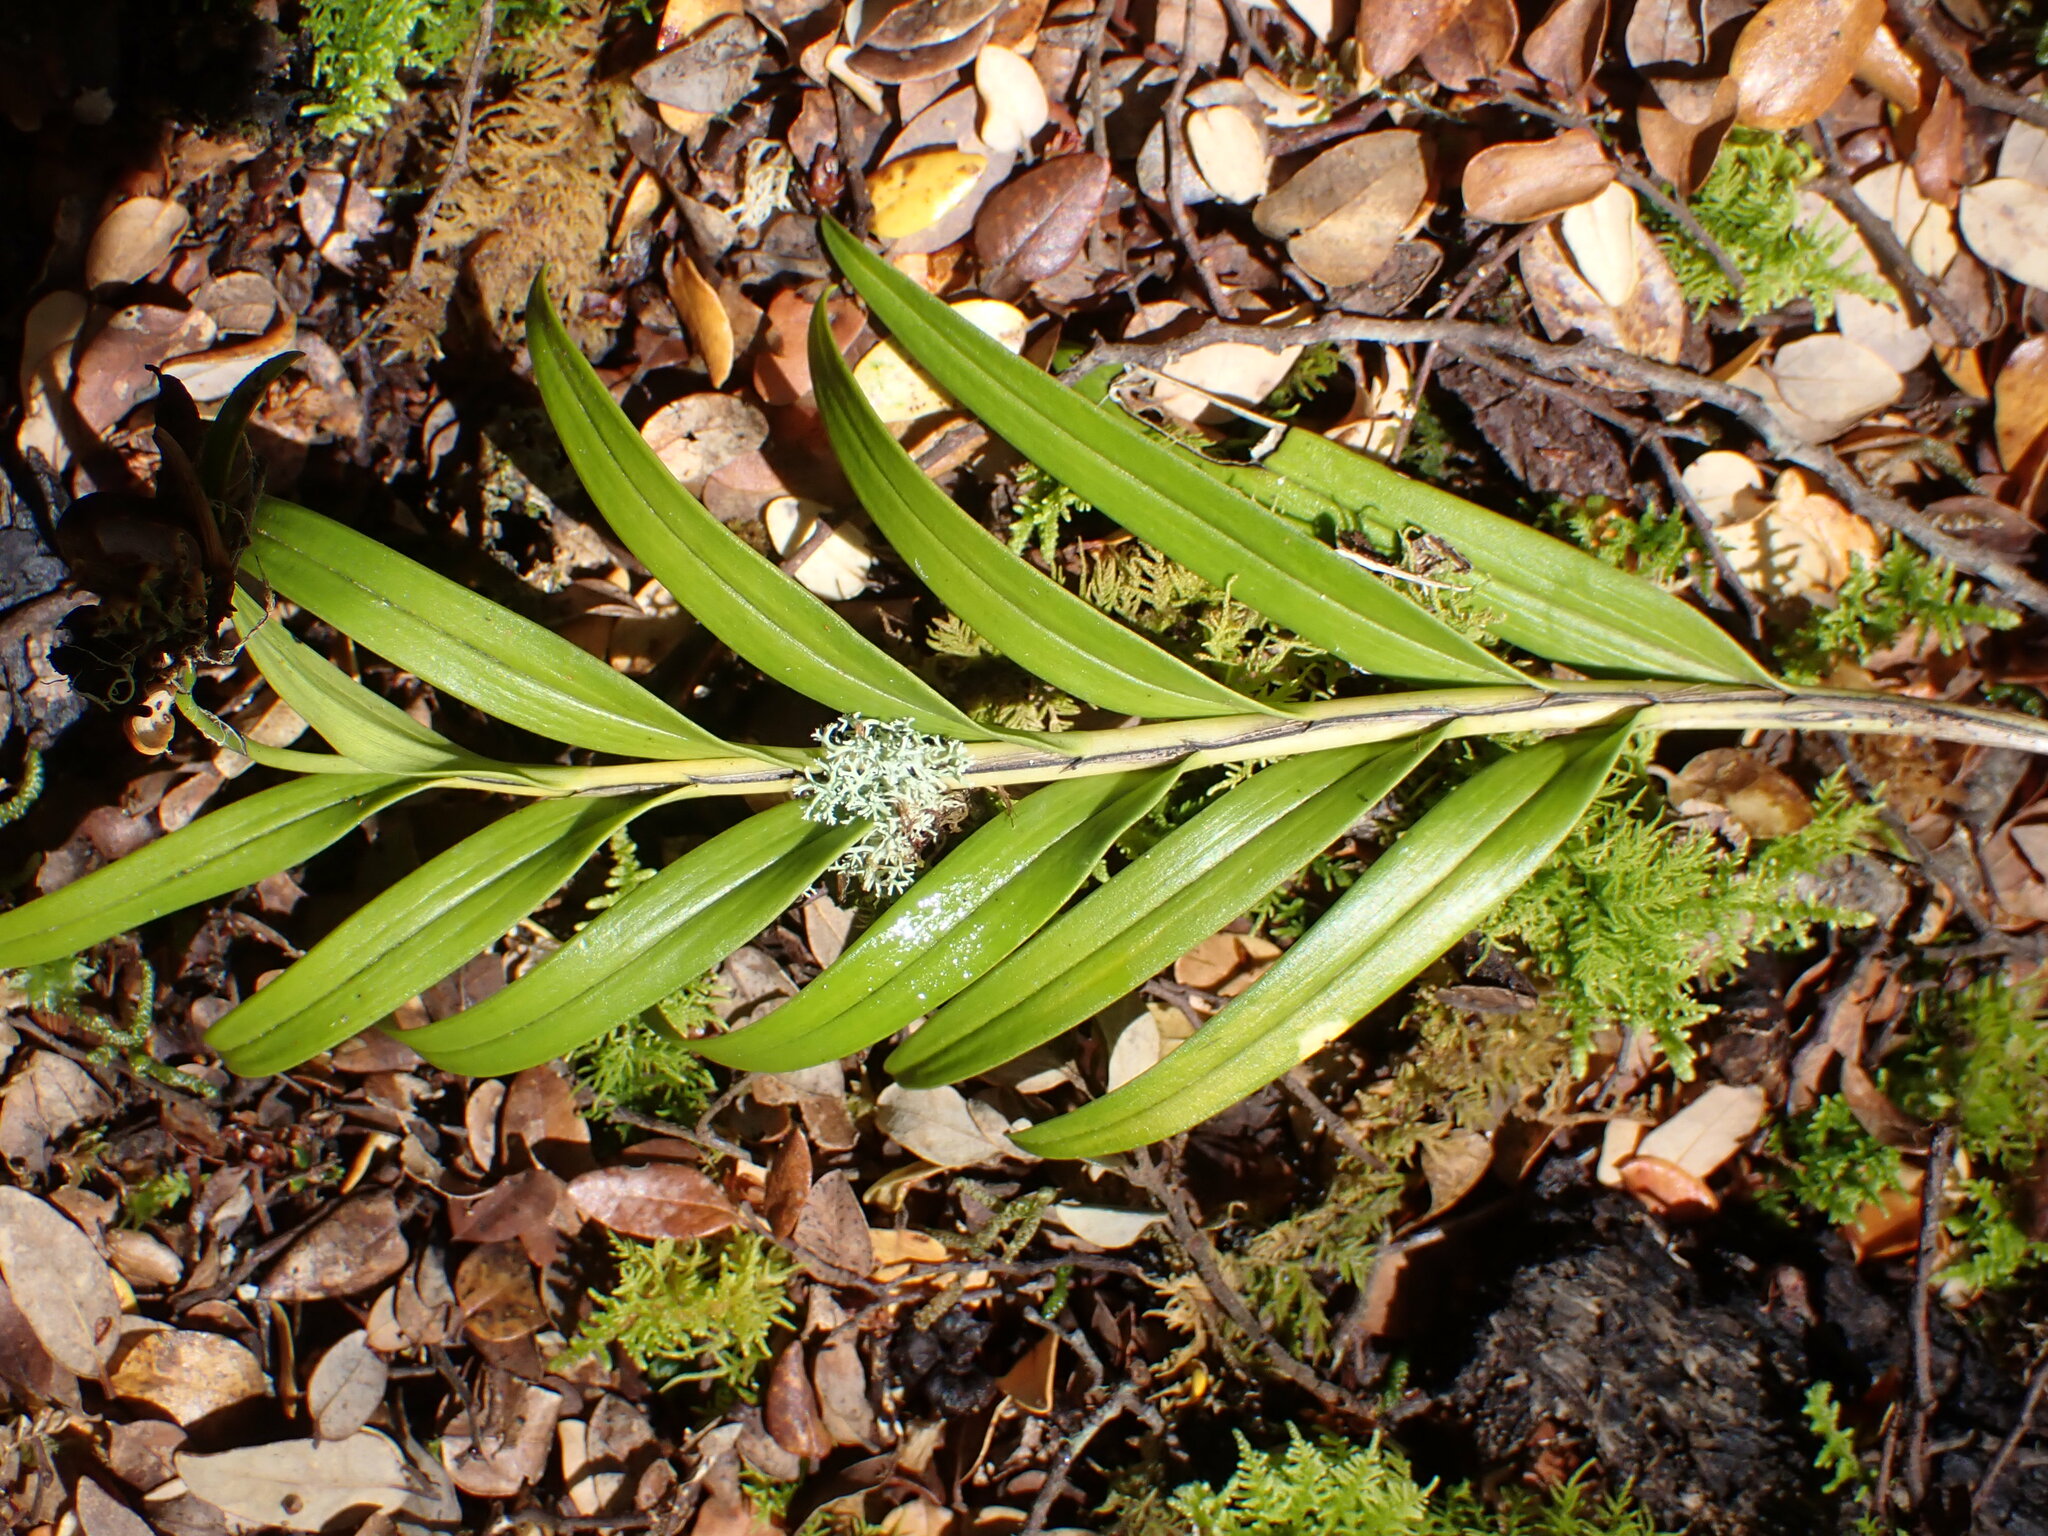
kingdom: Plantae
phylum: Tracheophyta
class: Liliopsida
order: Asparagales
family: Orchidaceae
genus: Earina
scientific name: Earina autumnalis
